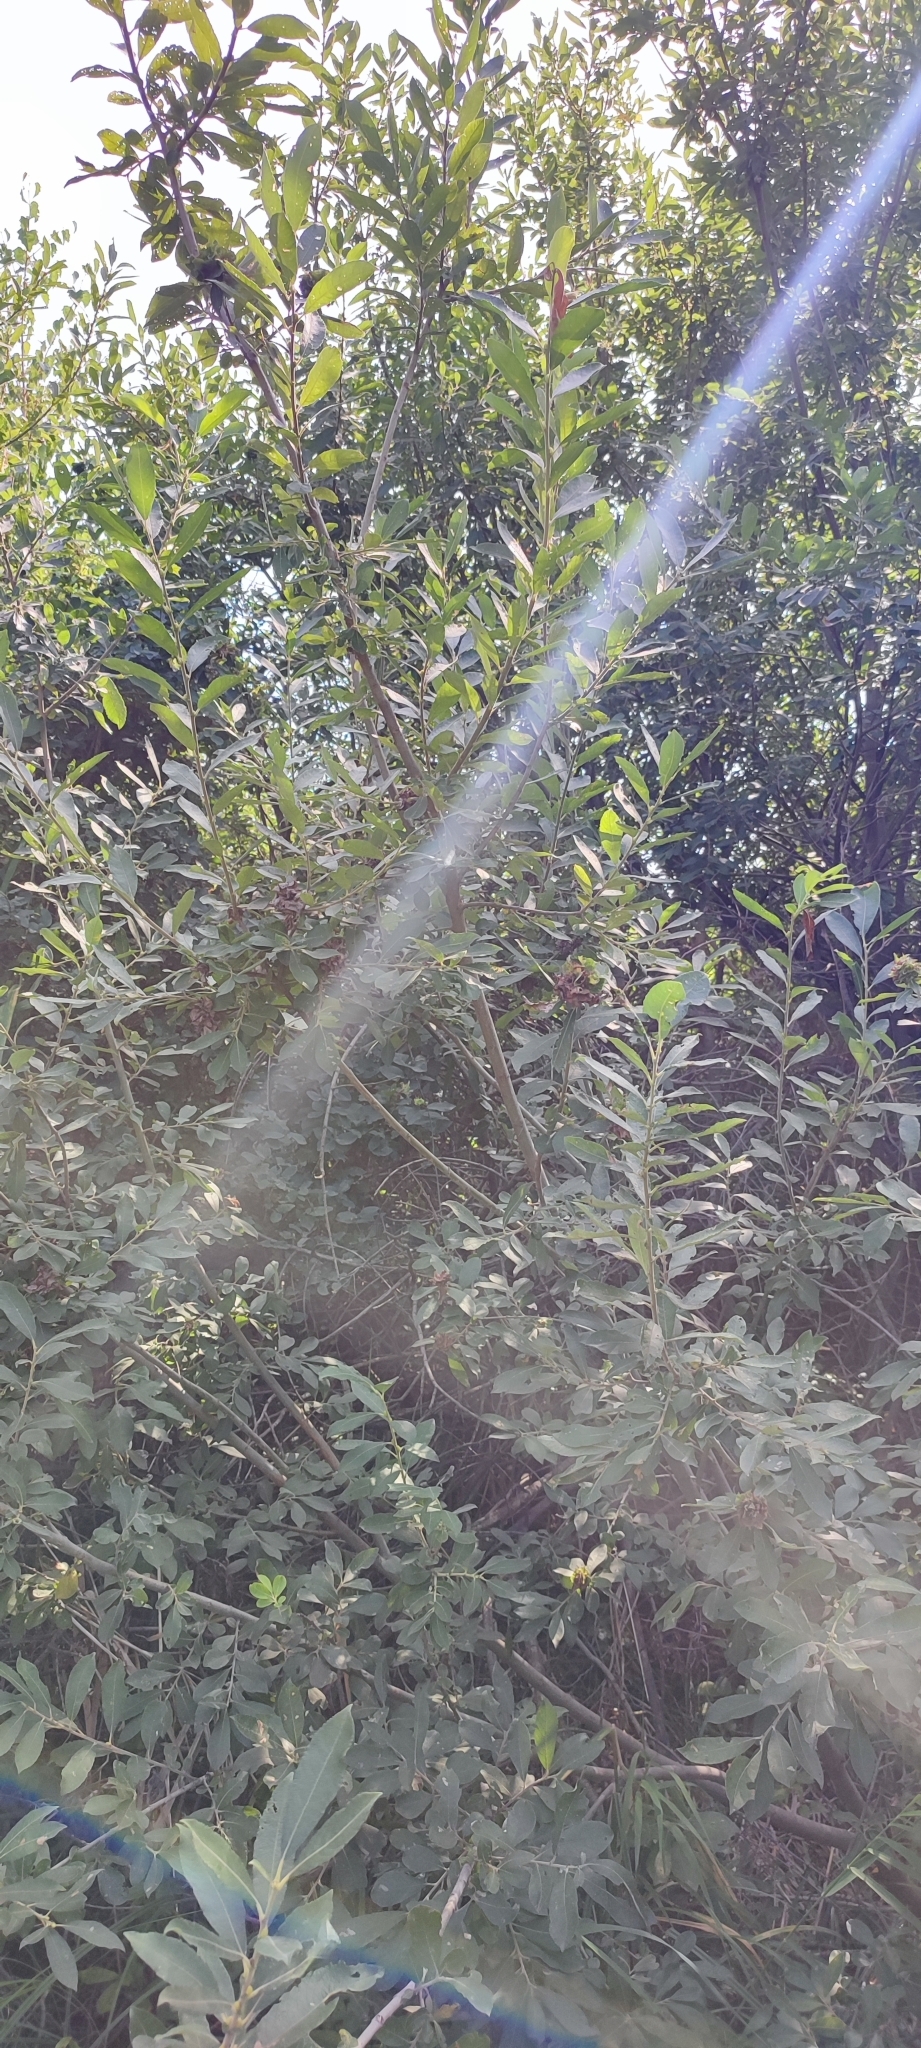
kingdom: Plantae
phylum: Tracheophyta
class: Magnoliopsida
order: Malpighiales
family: Salicaceae
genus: Salix
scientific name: Salix cinerea
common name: Common sallow
